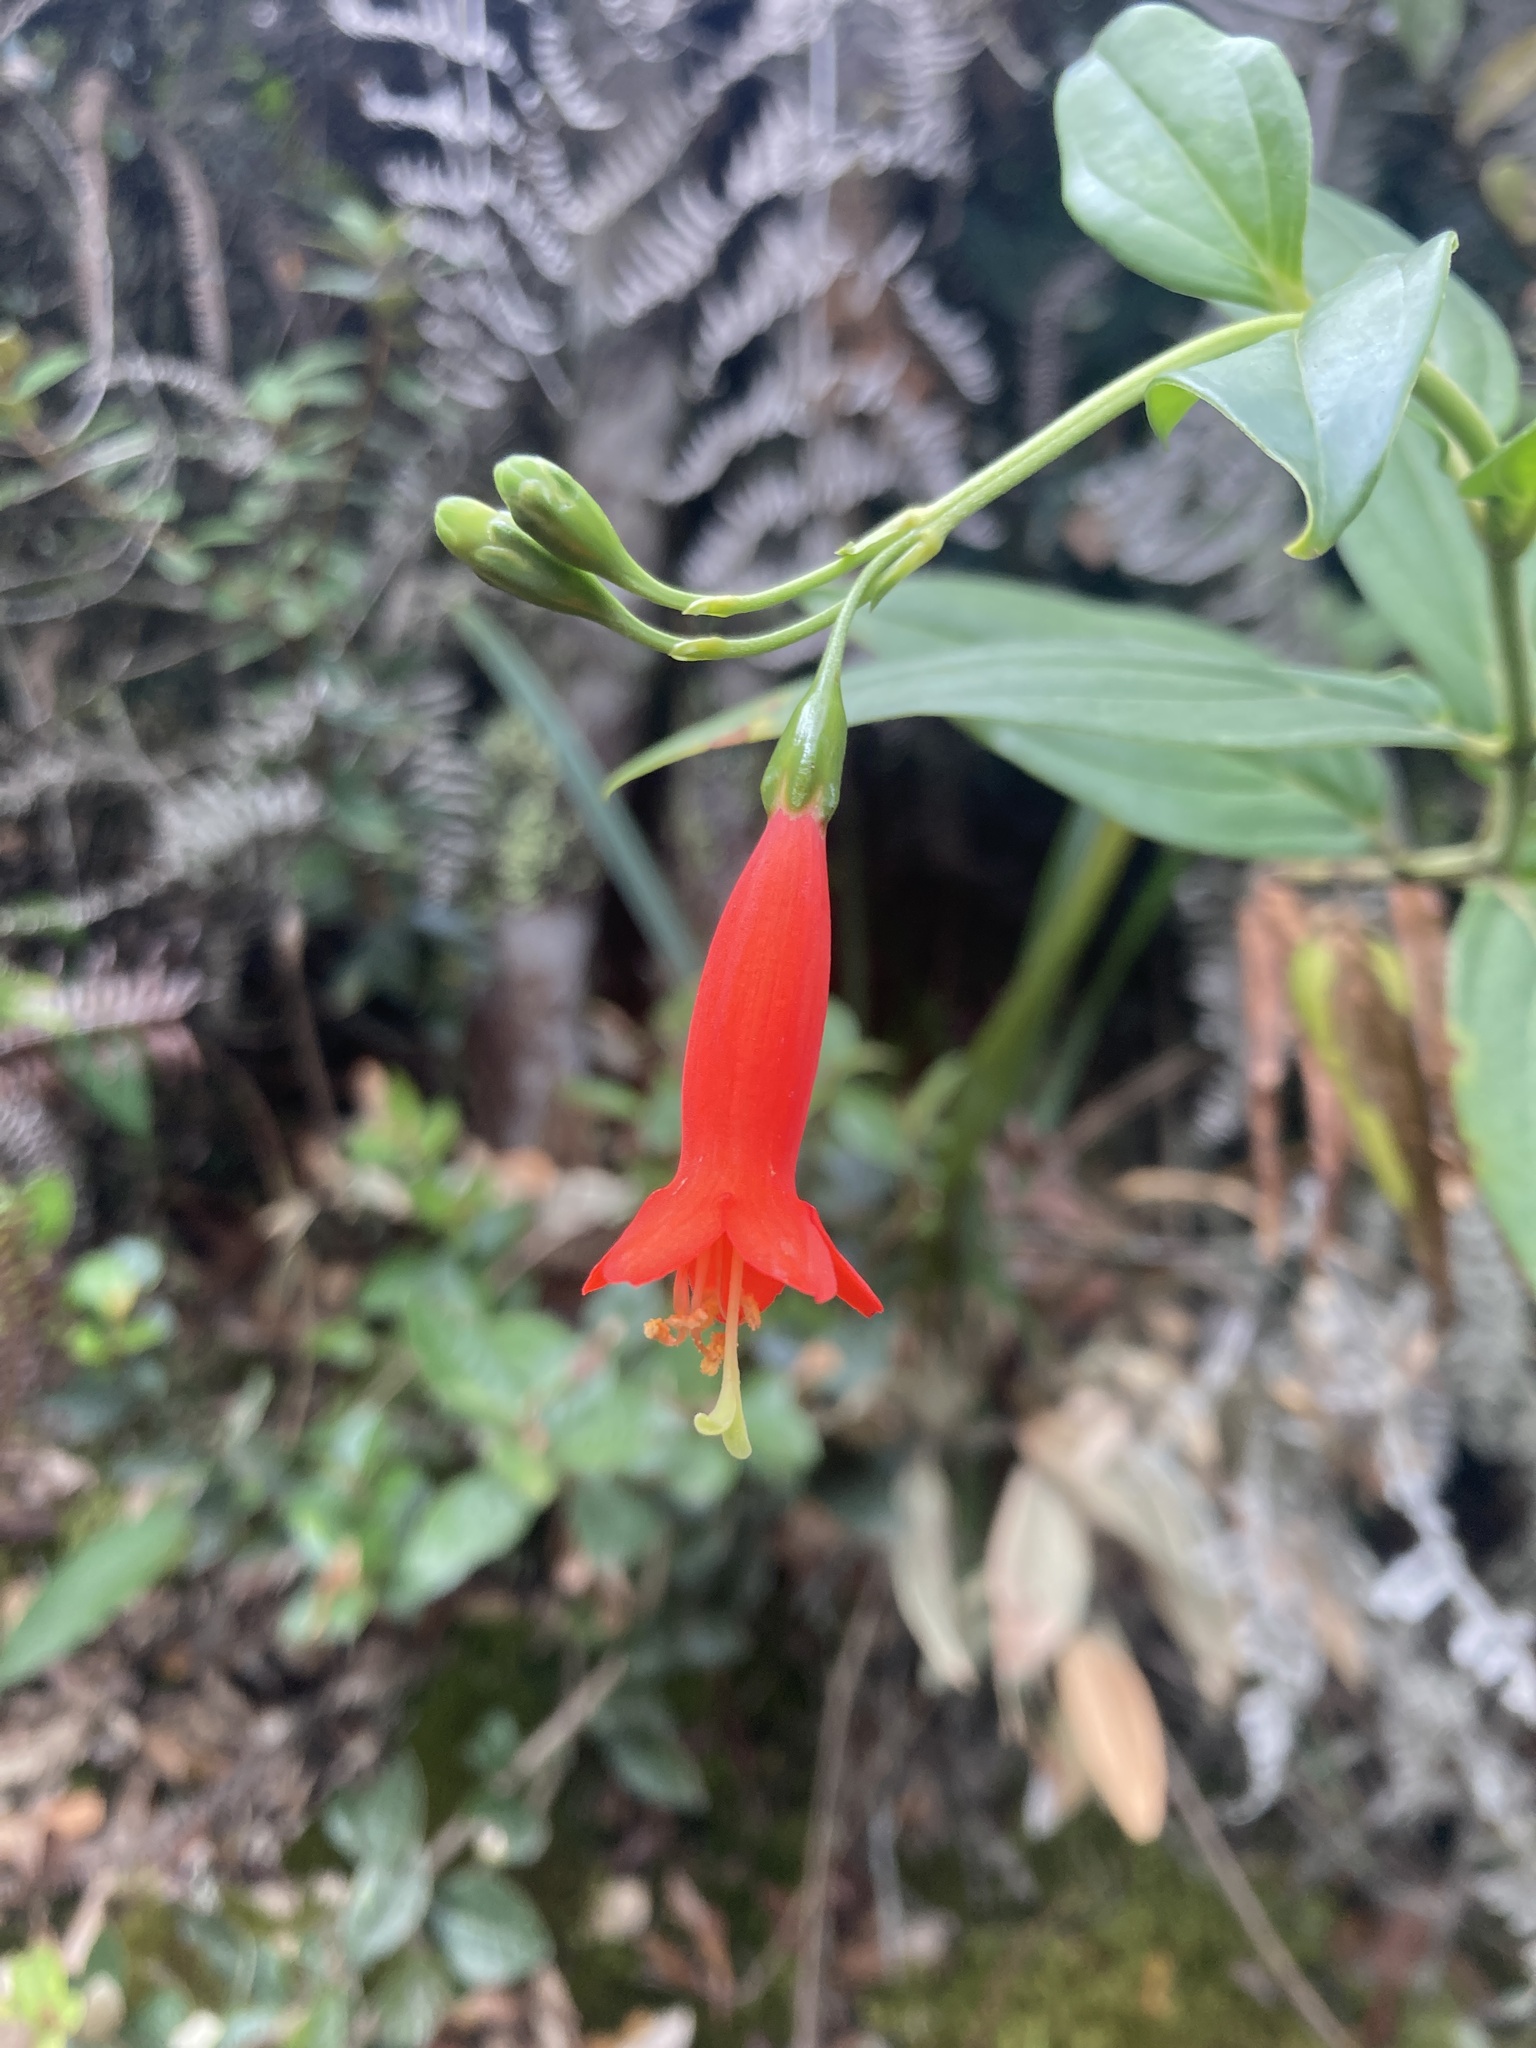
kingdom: Plantae
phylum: Tracheophyta
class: Magnoliopsida
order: Gentianales
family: Gentianaceae
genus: Lehmanniella
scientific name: Lehmanniella pulchra
